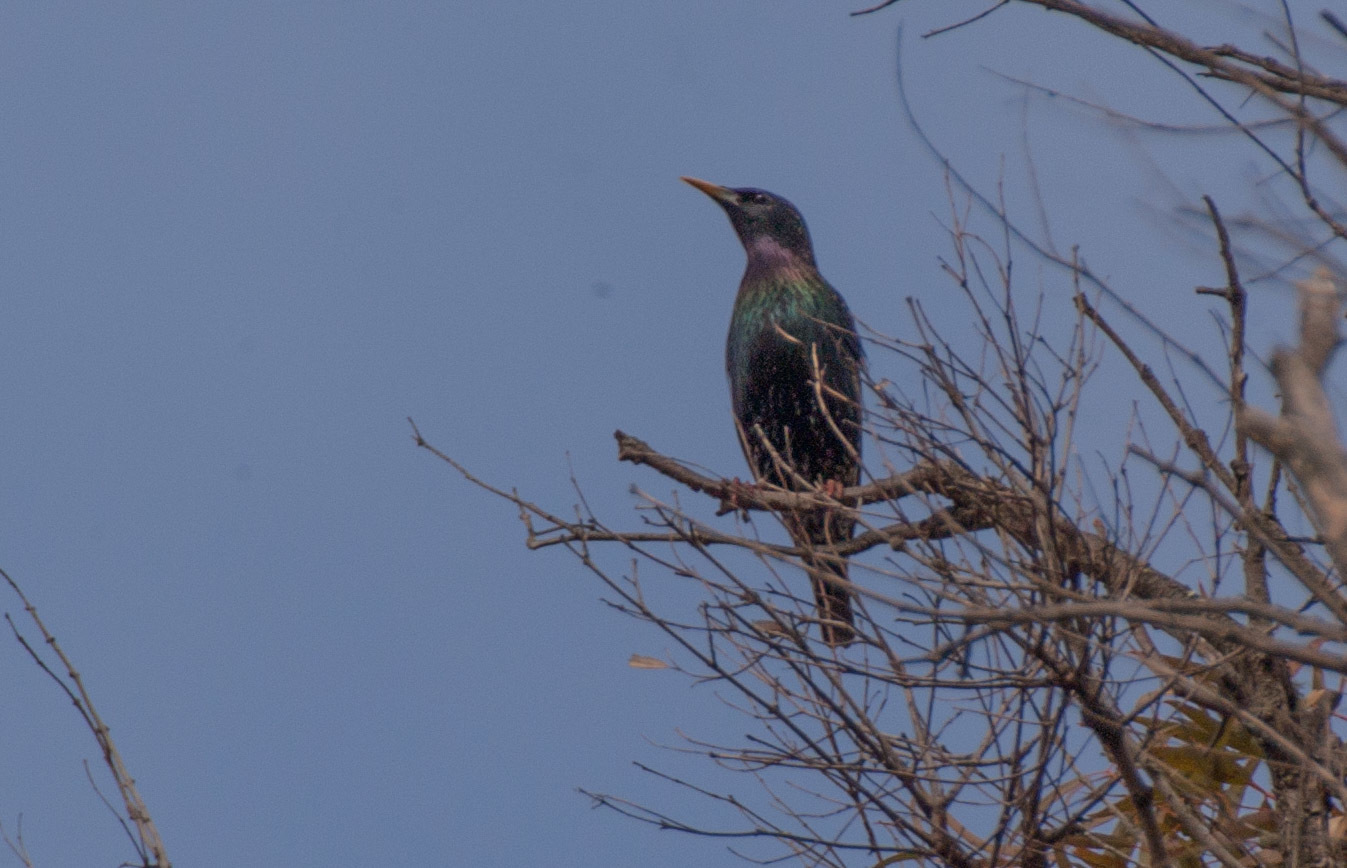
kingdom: Animalia
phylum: Chordata
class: Aves
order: Passeriformes
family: Sturnidae
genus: Sturnus
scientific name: Sturnus vulgaris
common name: Common starling
